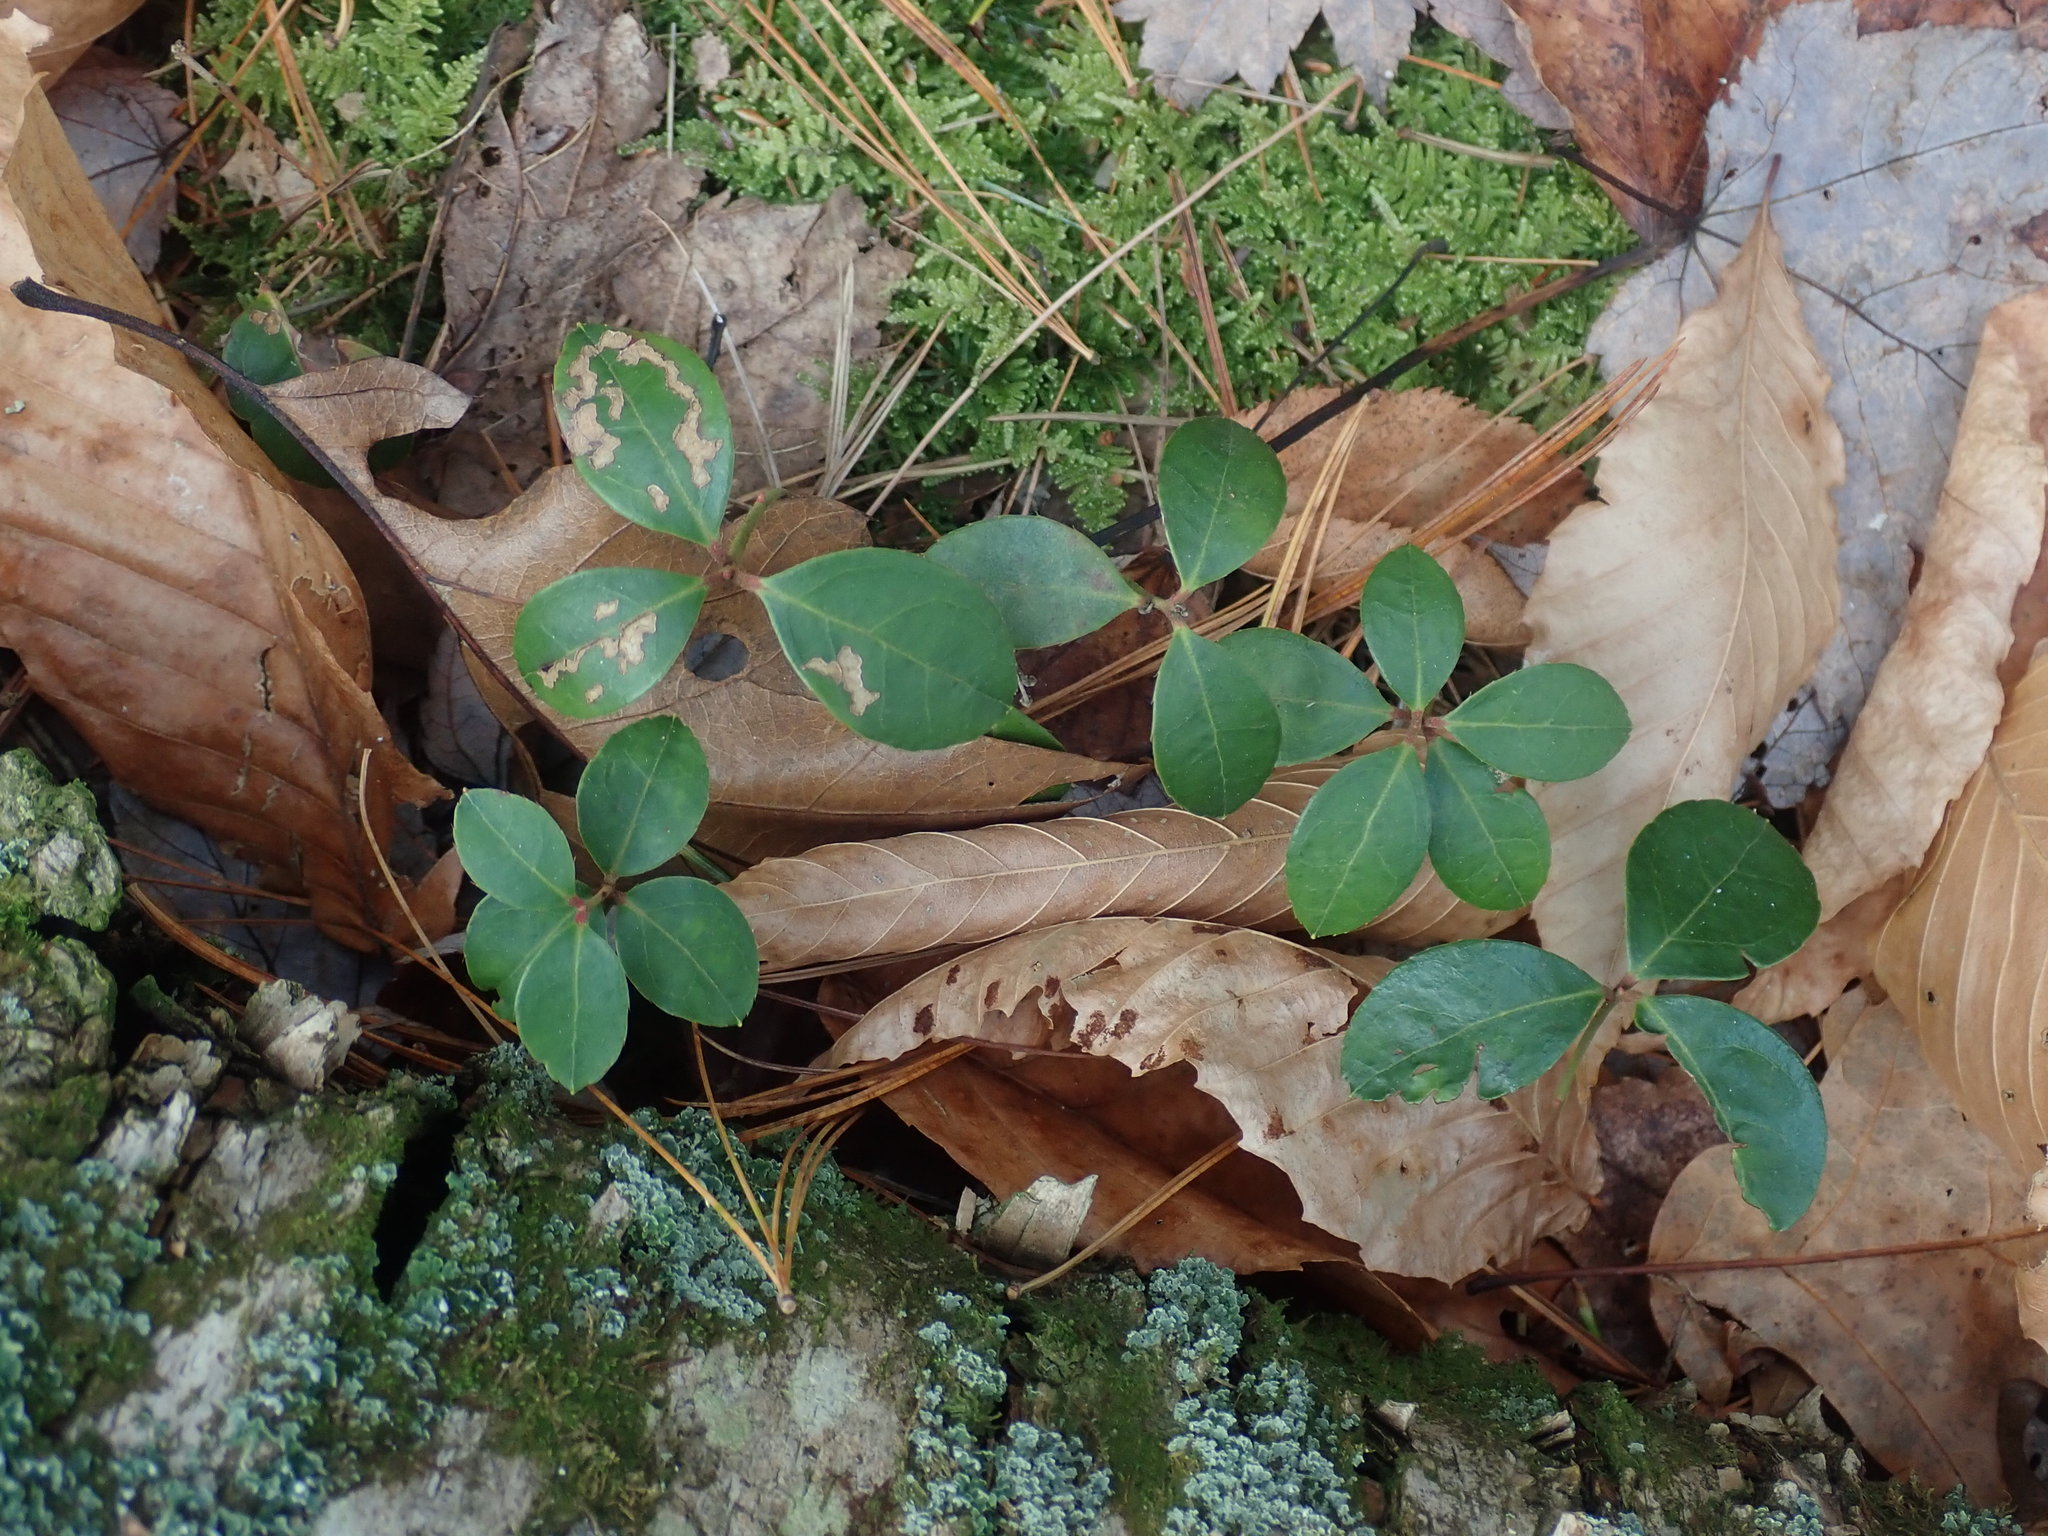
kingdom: Plantae
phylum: Tracheophyta
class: Magnoliopsida
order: Ericales
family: Ericaceae
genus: Gaultheria
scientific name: Gaultheria procumbens
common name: Checkerberry
